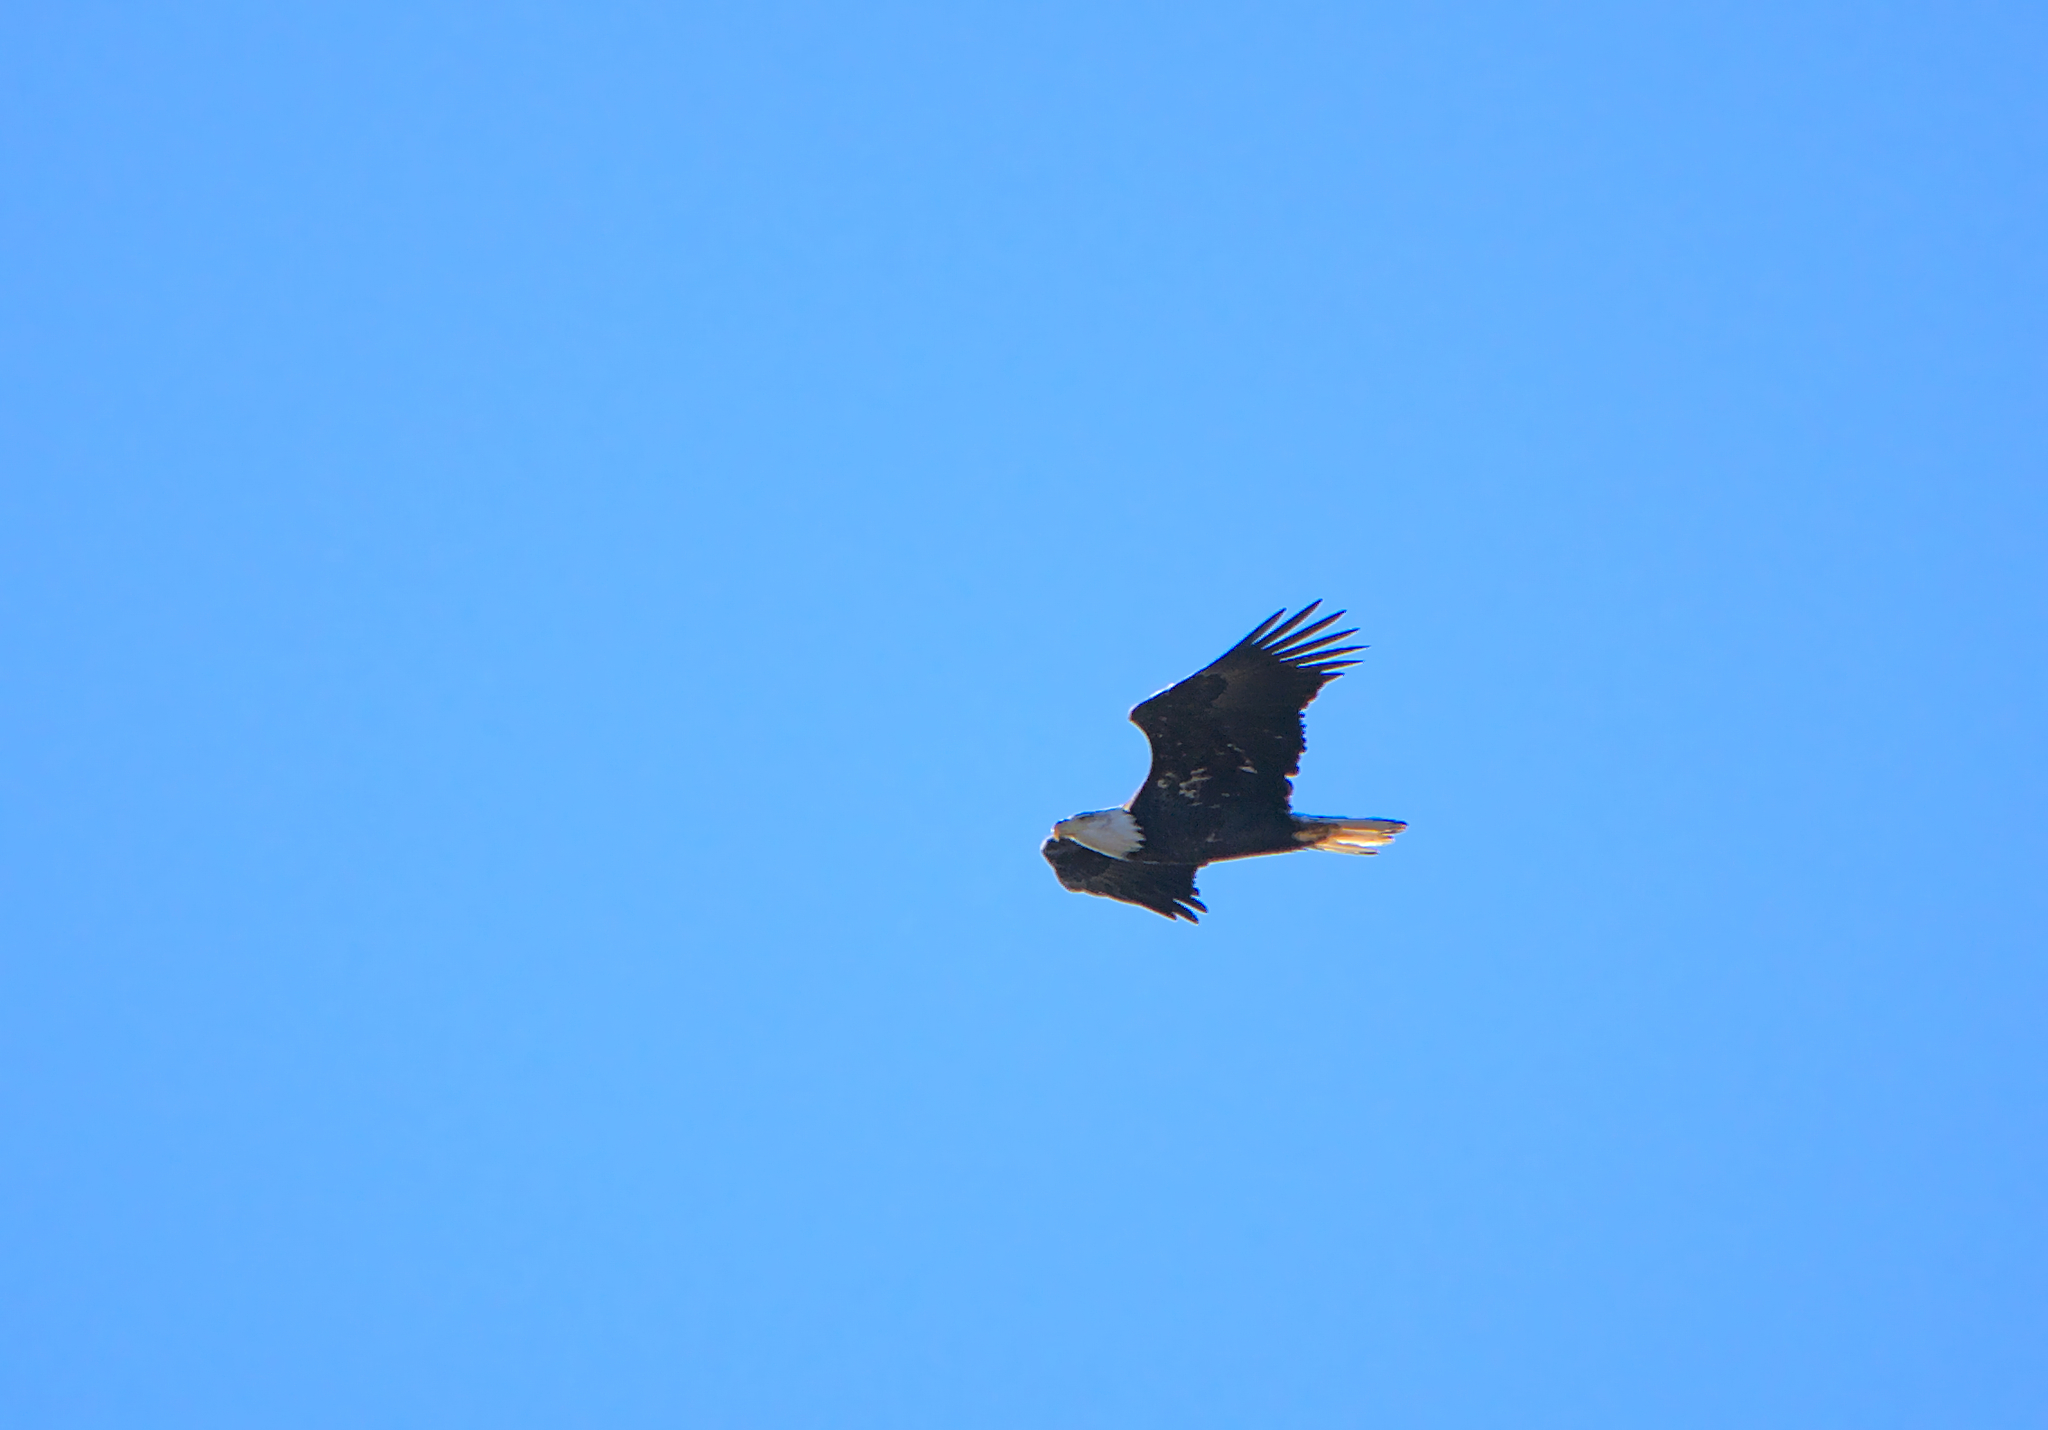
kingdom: Animalia
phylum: Chordata
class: Aves
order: Accipitriformes
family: Accipitridae
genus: Haliaeetus
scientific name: Haliaeetus leucocephalus
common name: Bald eagle
